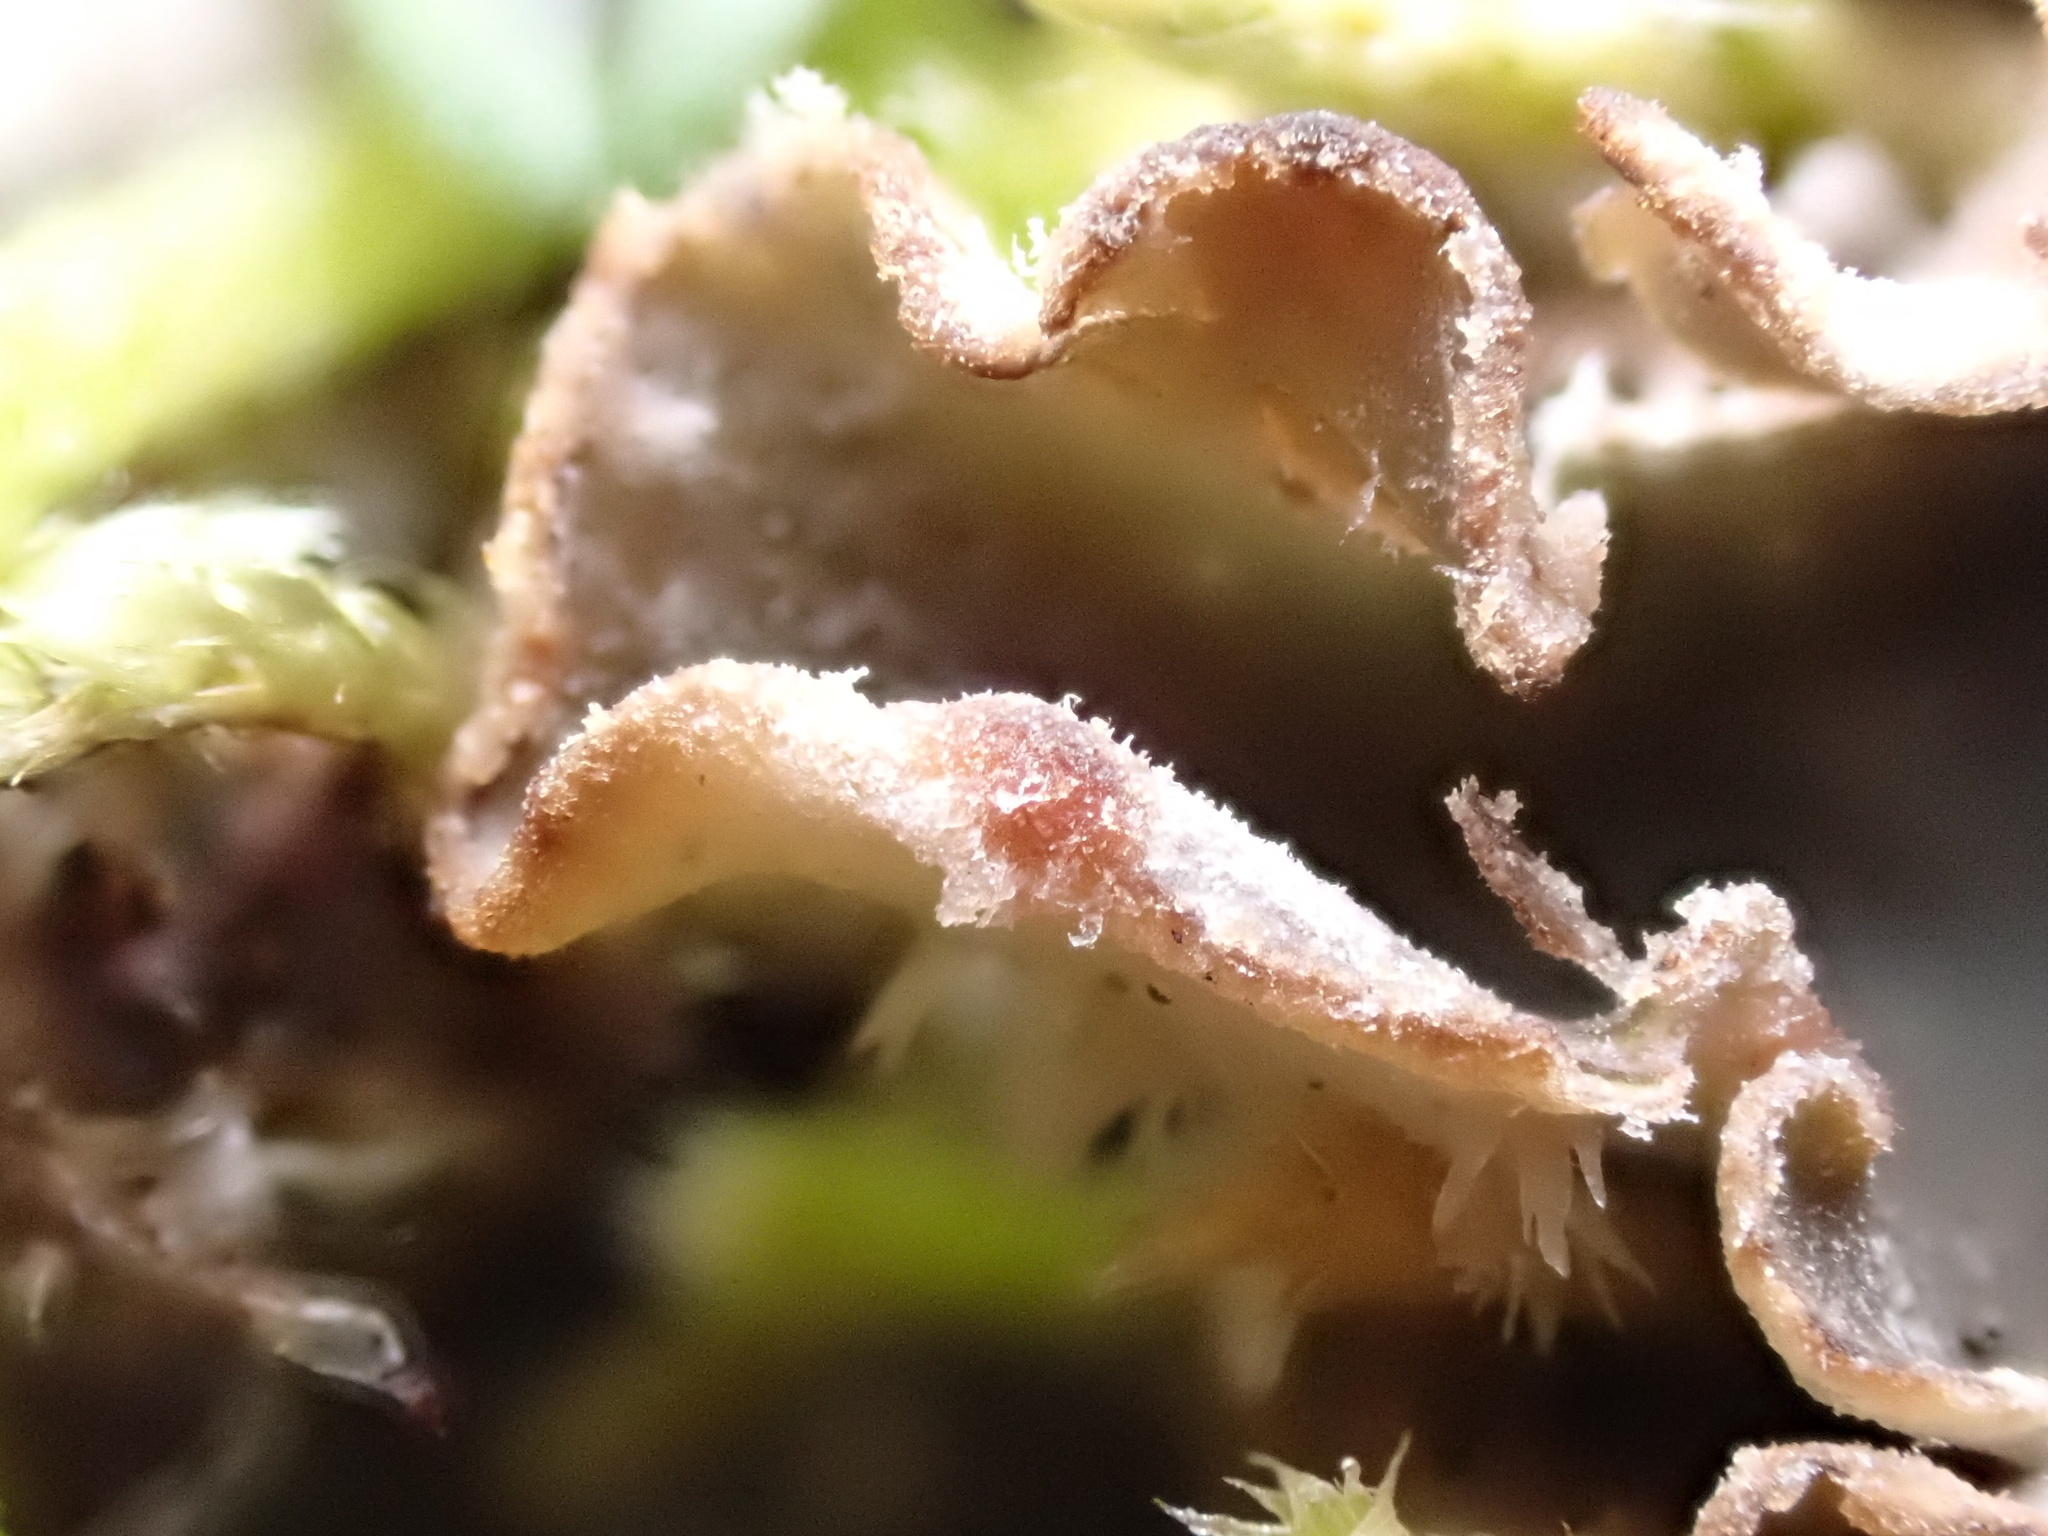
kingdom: Fungi
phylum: Ascomycota
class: Lecanoromycetes
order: Peltigerales
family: Peltigeraceae
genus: Peltigera
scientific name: Peltigera rufescens
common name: Field dog lichen
